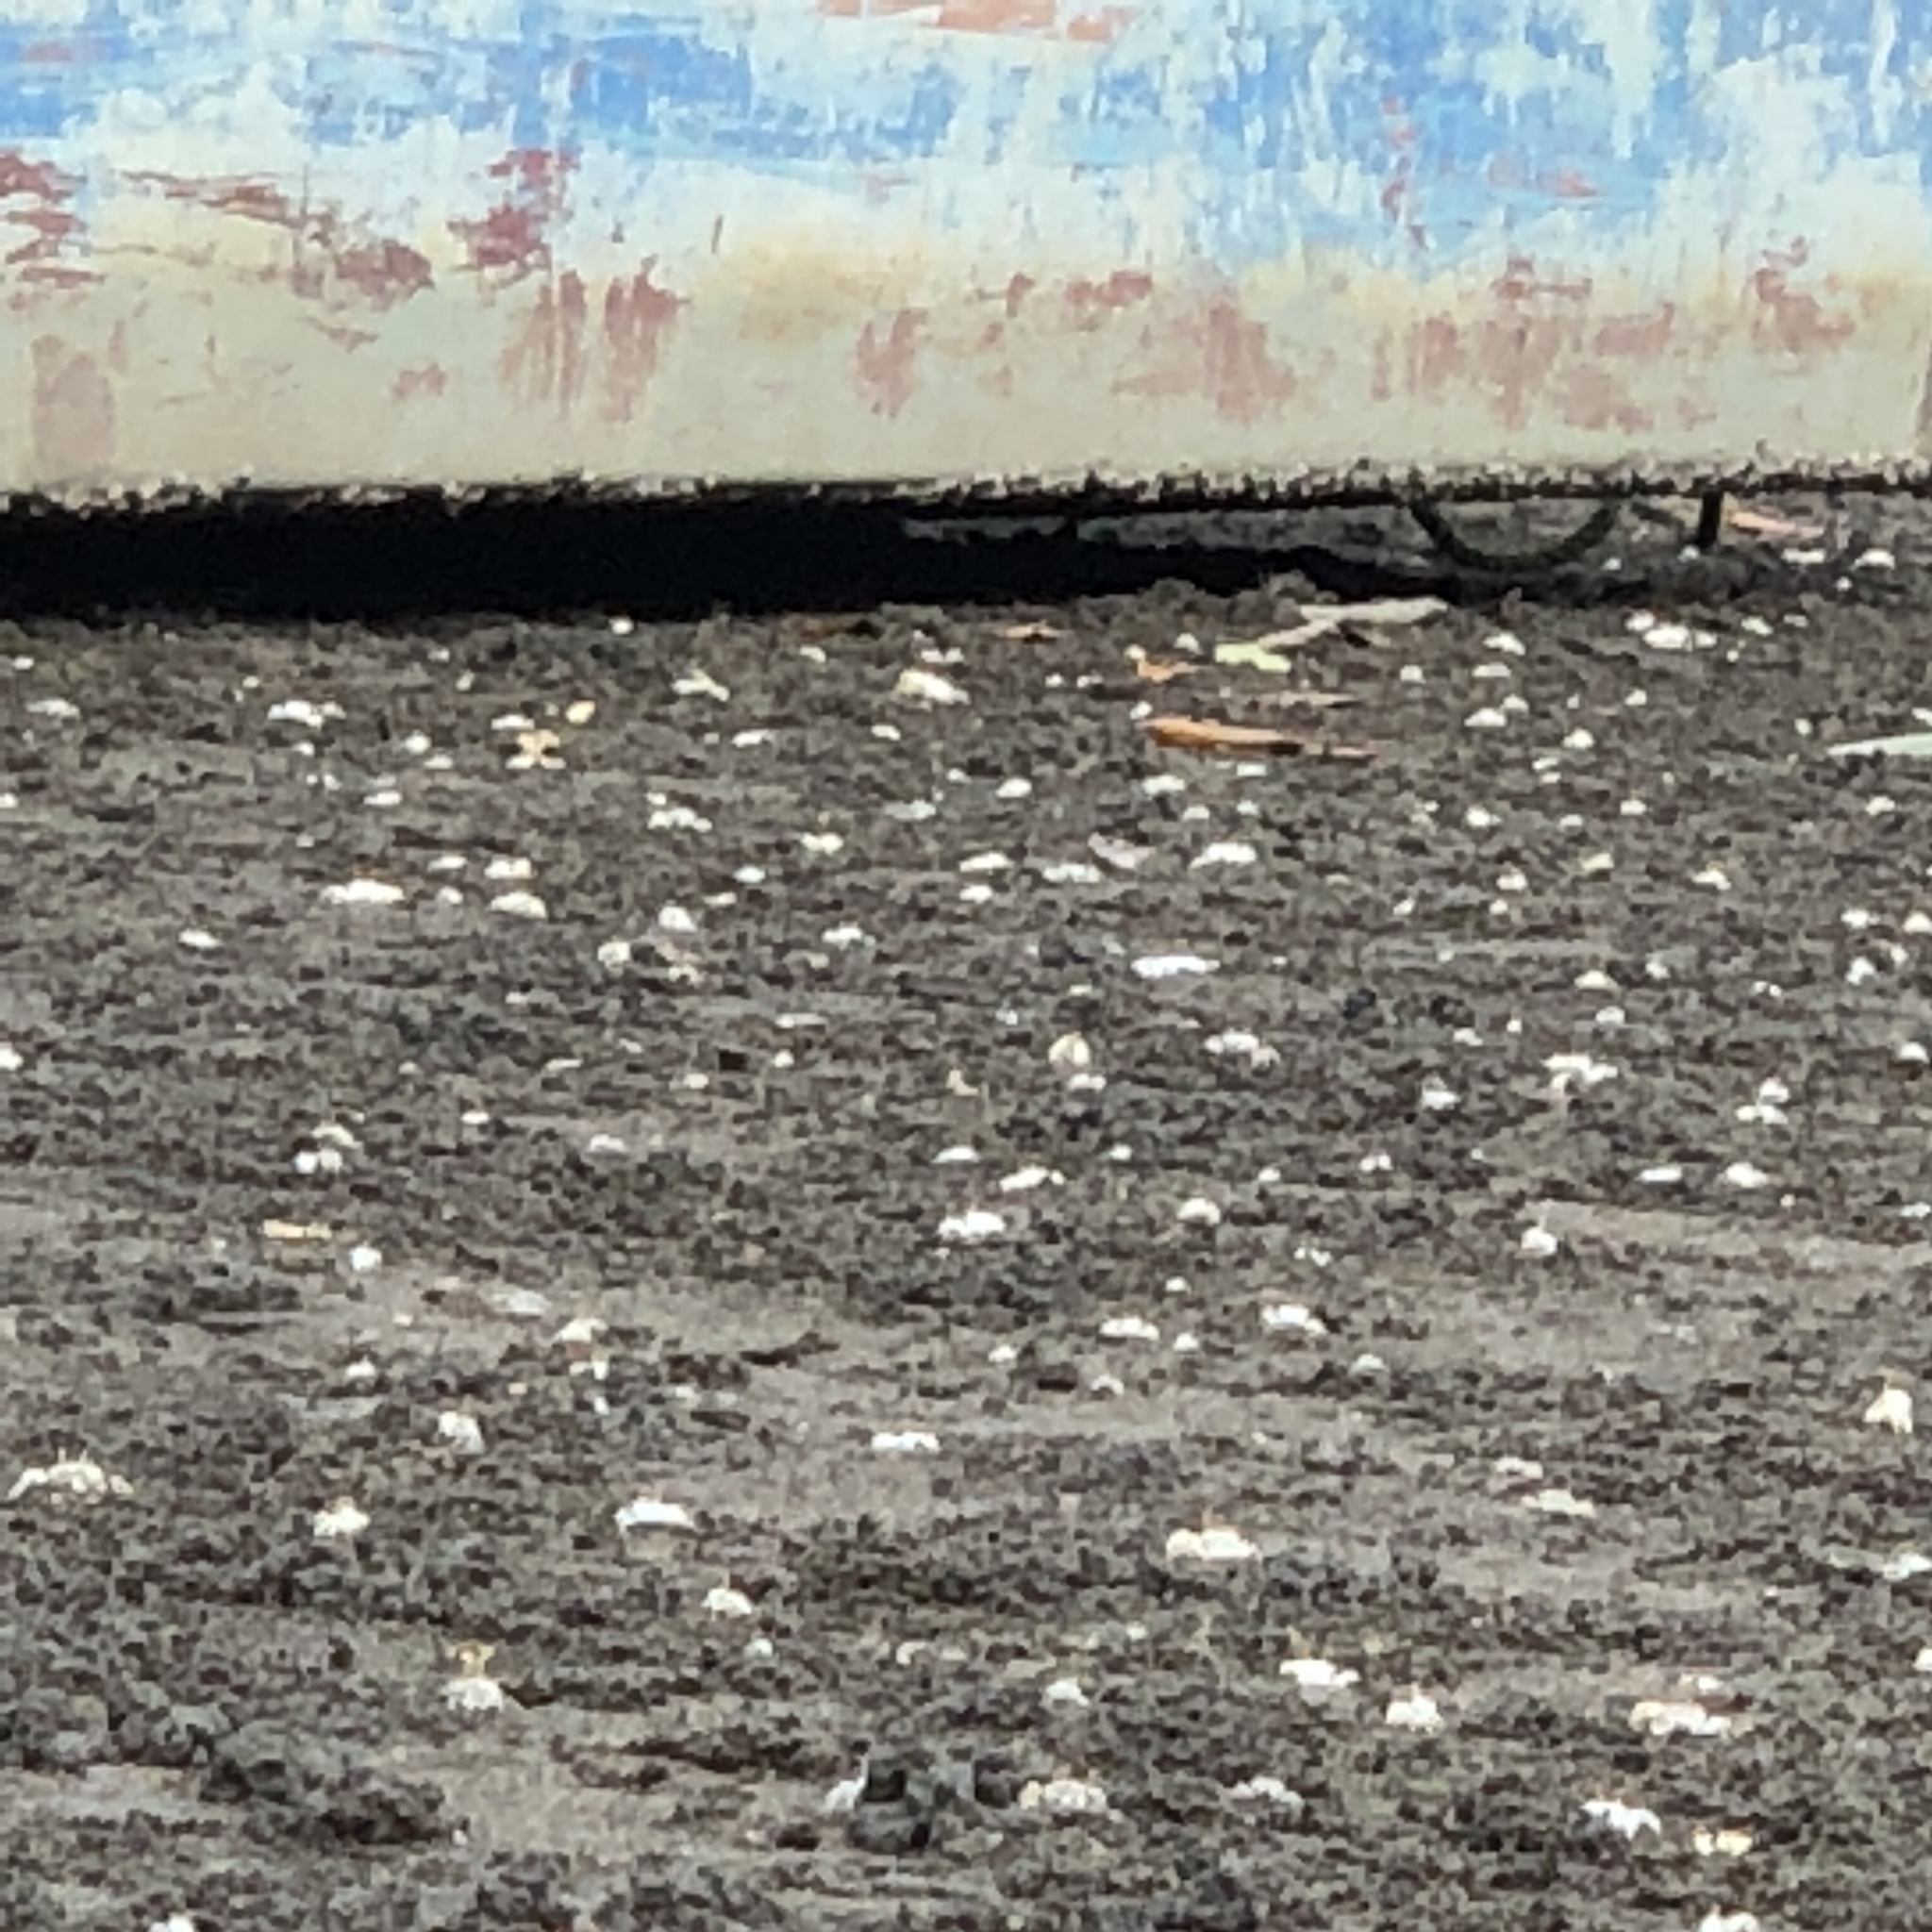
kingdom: Animalia
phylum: Arthropoda
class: Malacostraca
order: Decapoda
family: Ocypodidae
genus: Austruca
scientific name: Austruca lactea
